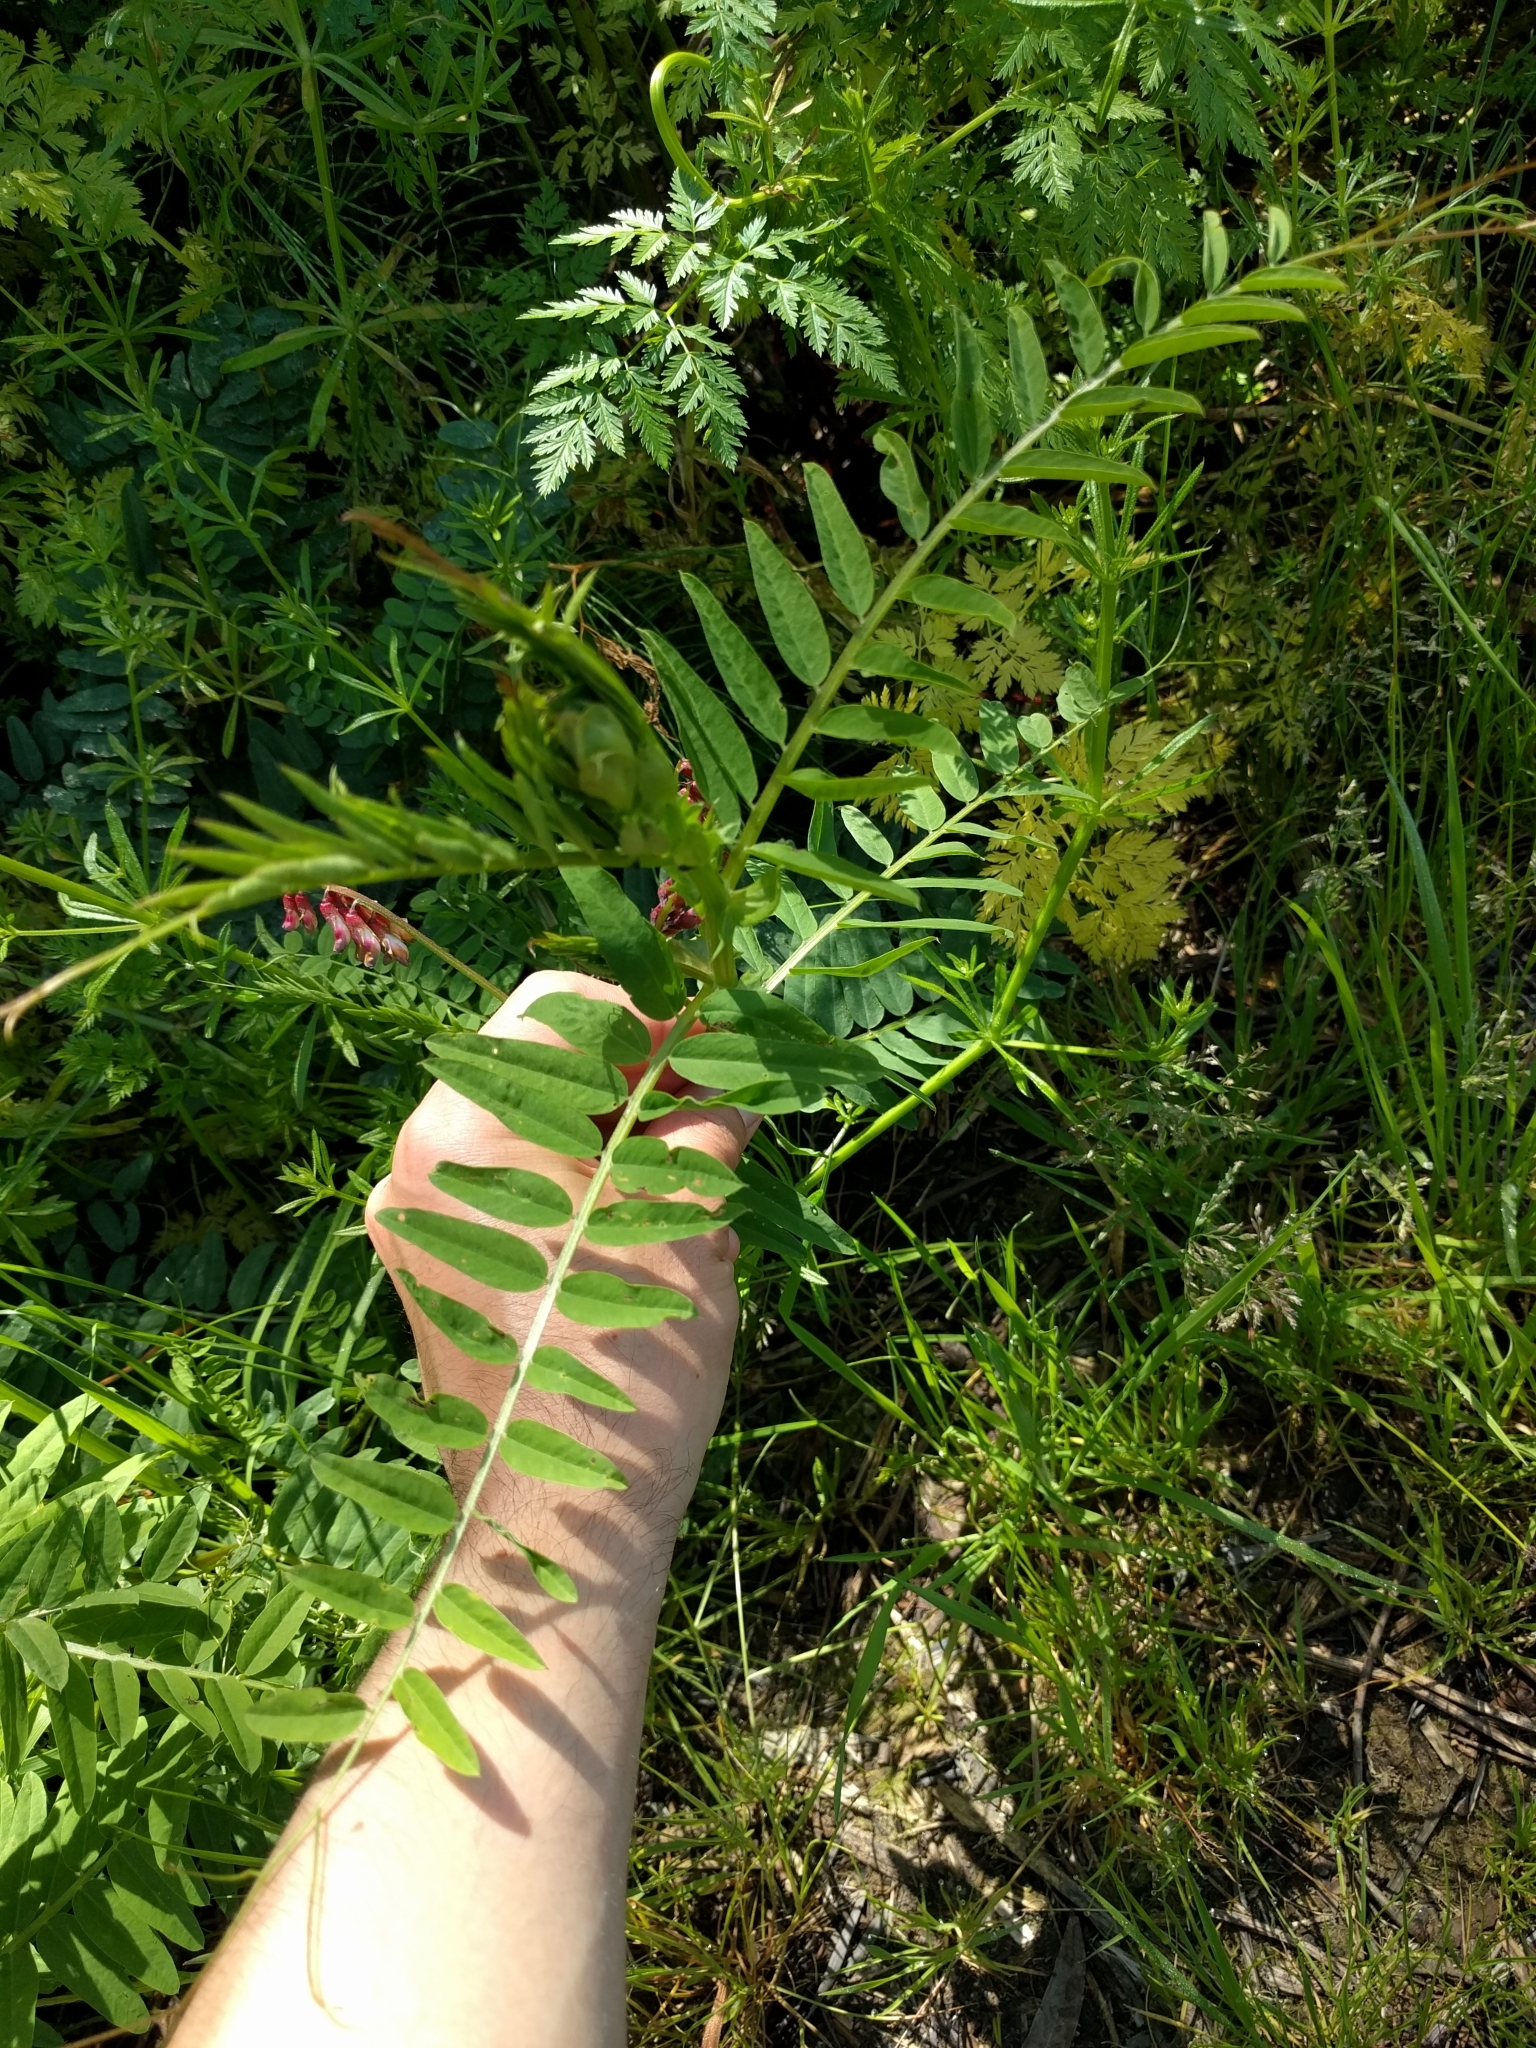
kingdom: Plantae
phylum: Tracheophyta
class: Magnoliopsida
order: Fabales
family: Fabaceae
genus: Vicia
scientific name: Vicia
